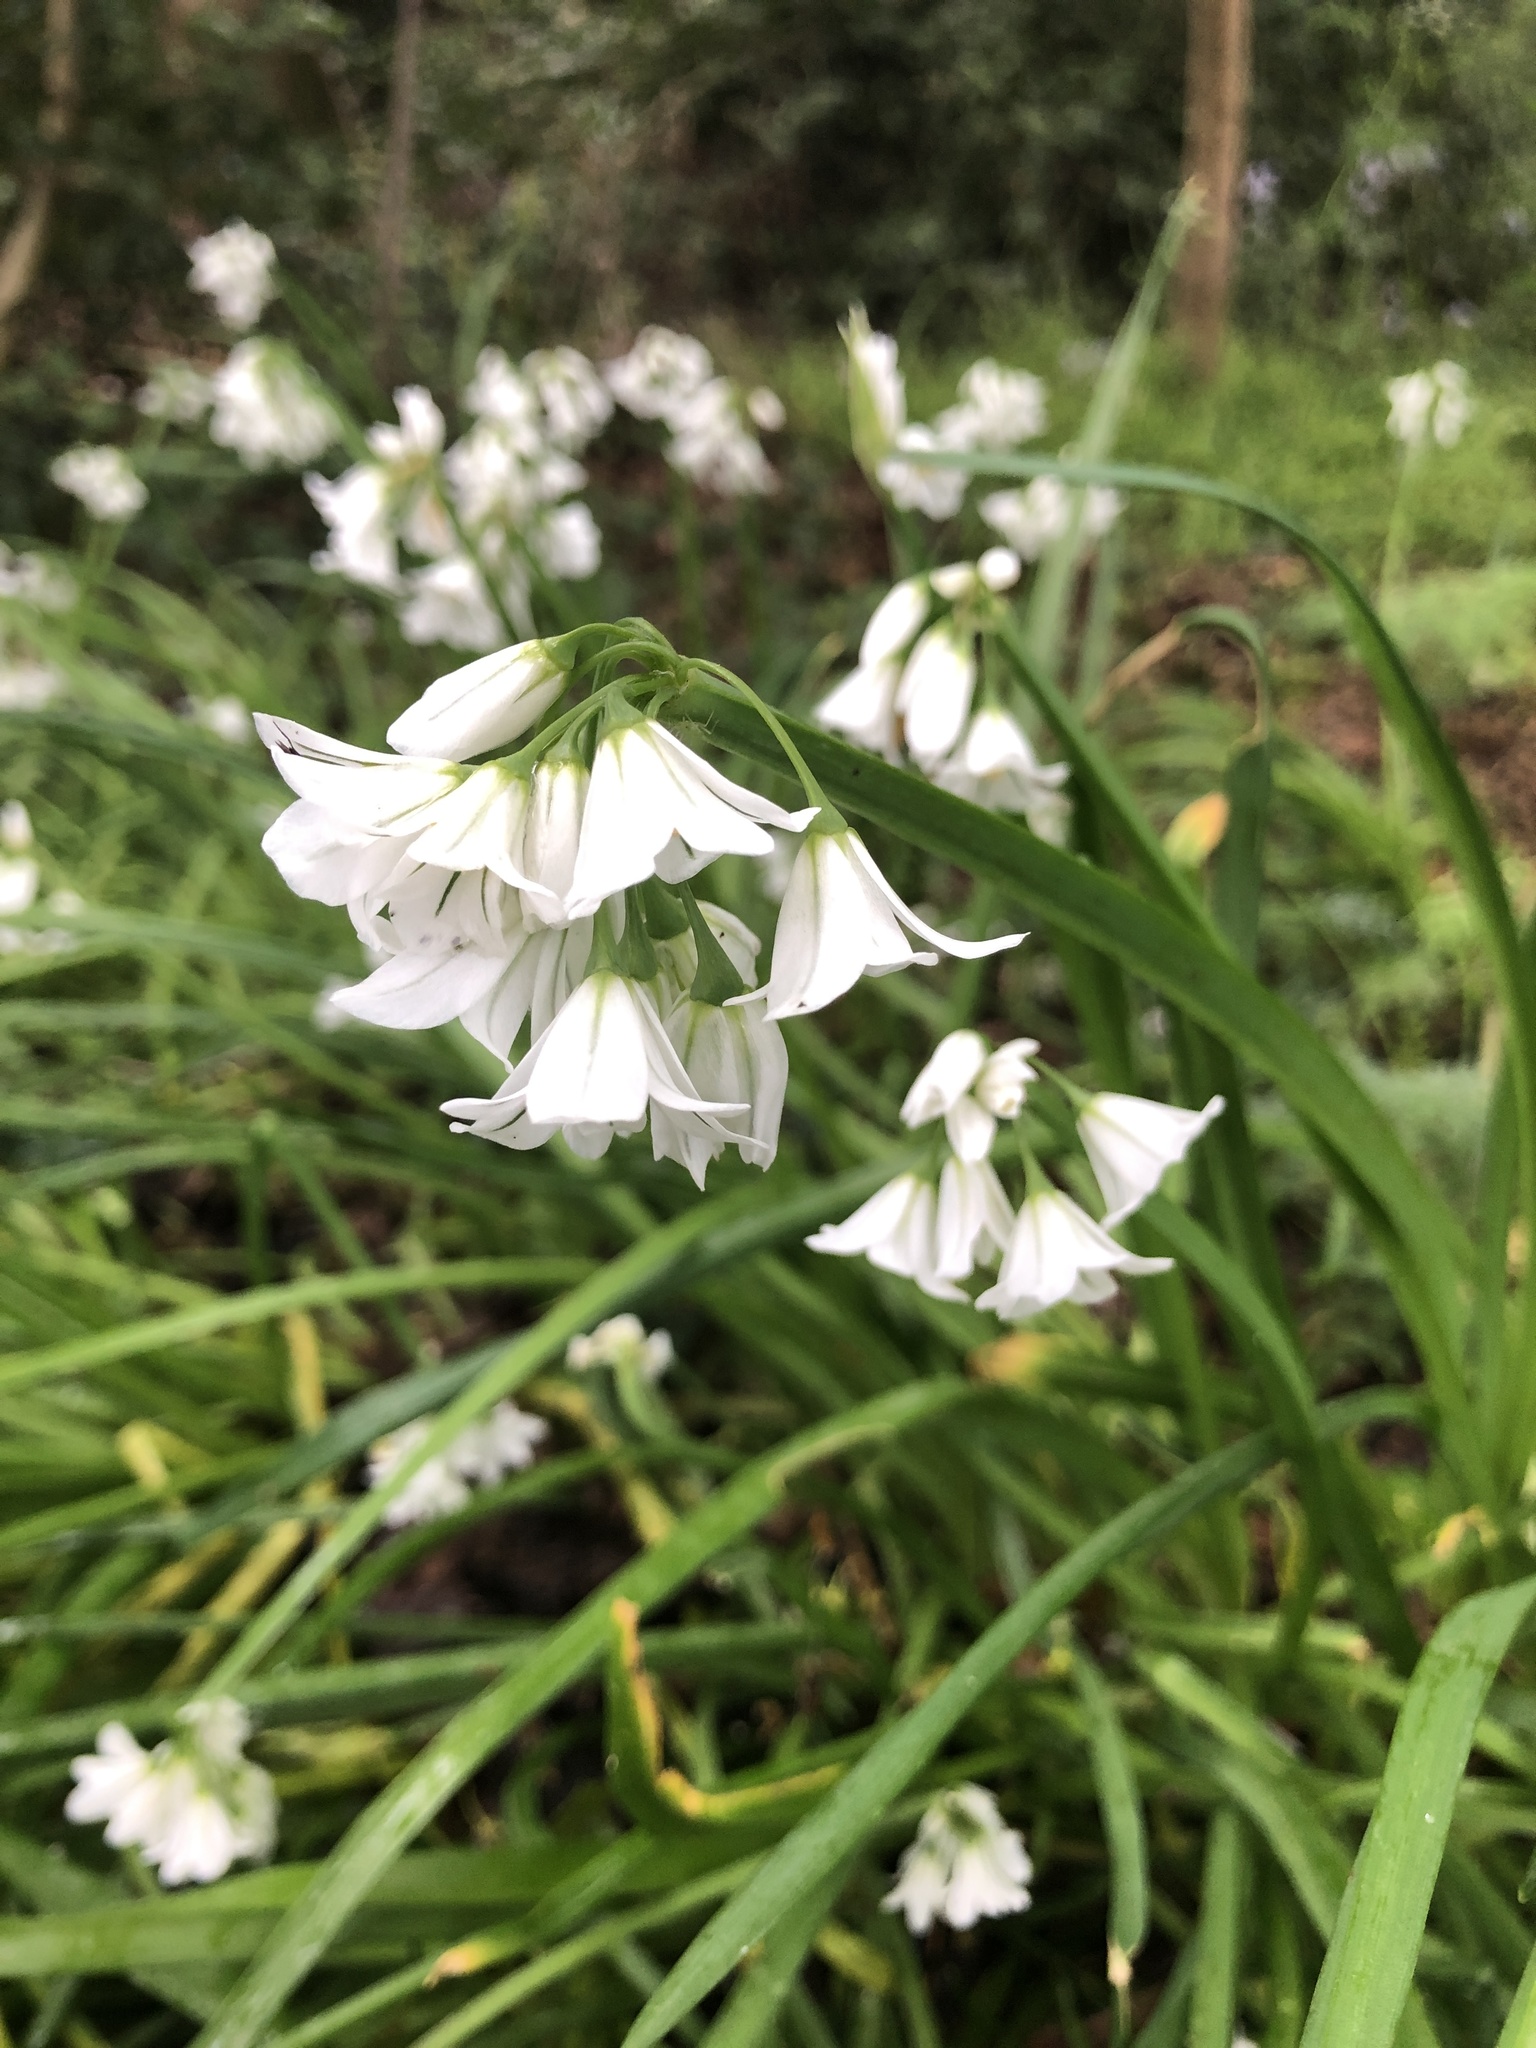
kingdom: Plantae
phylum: Tracheophyta
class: Liliopsida
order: Asparagales
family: Amaryllidaceae
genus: Allium
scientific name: Allium triquetrum
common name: Three-cornered garlic
